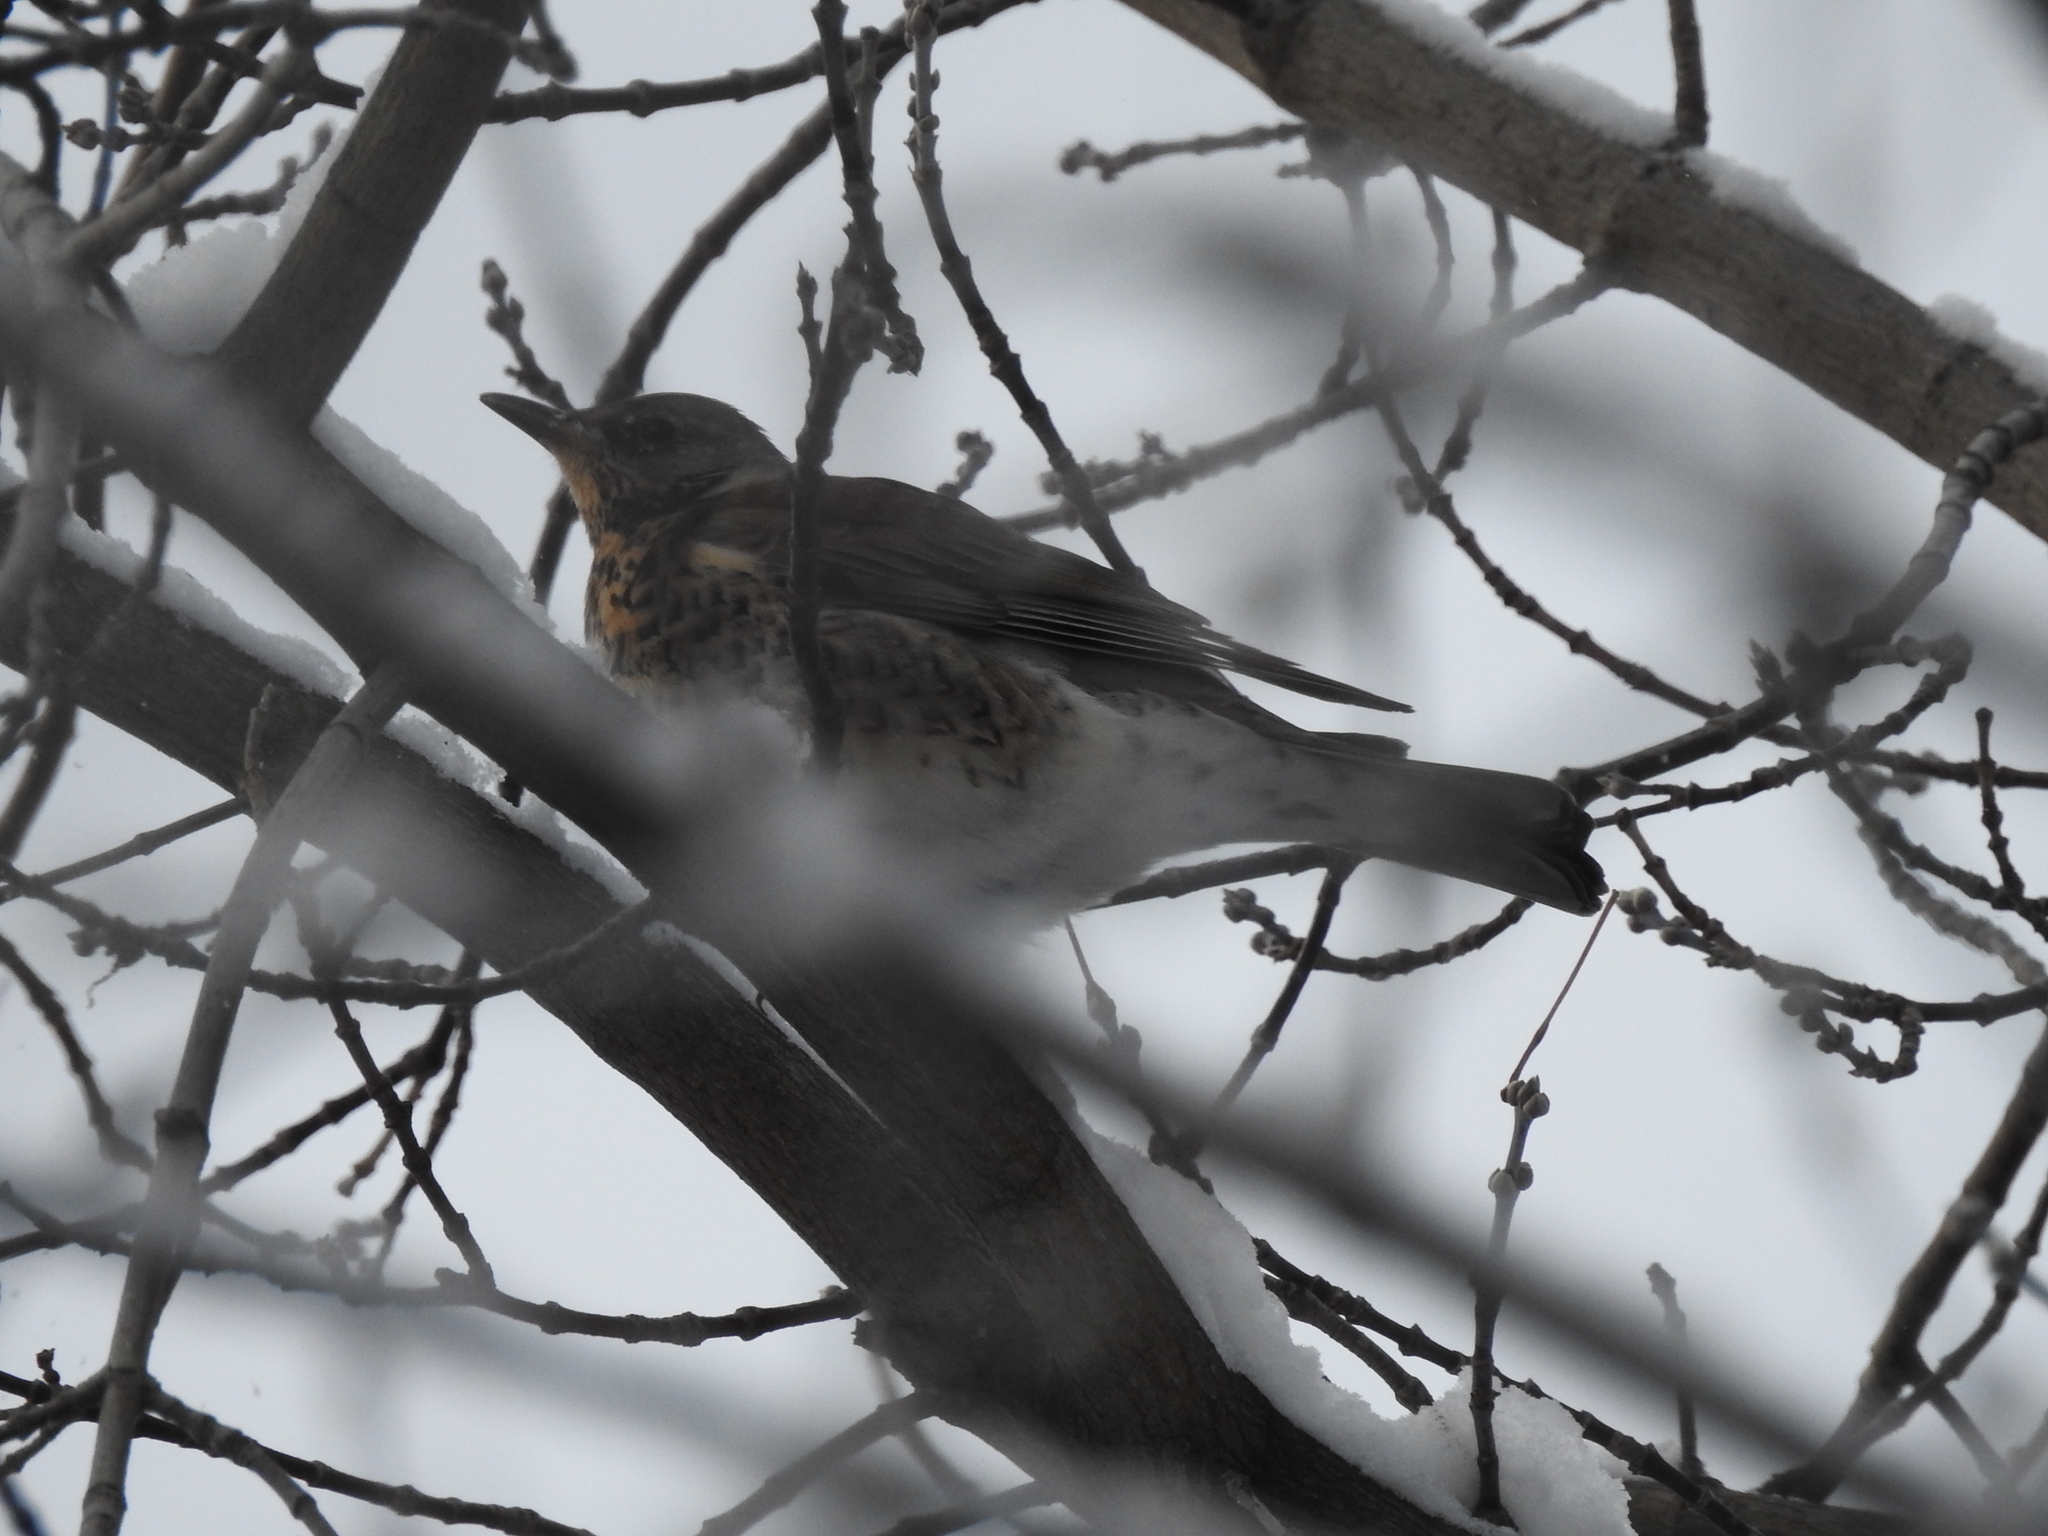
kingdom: Animalia
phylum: Chordata
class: Aves
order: Passeriformes
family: Turdidae
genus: Turdus
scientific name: Turdus pilaris
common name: Fieldfare
